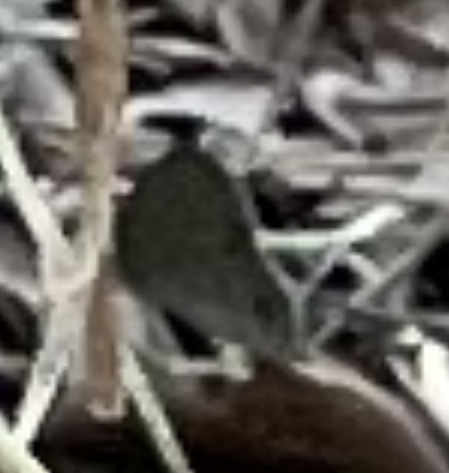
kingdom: Animalia
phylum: Arthropoda
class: Insecta
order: Lepidoptera
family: Nymphalidae
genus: Hermeuptychia
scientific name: Hermeuptychia hermes
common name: Hermes satyr
